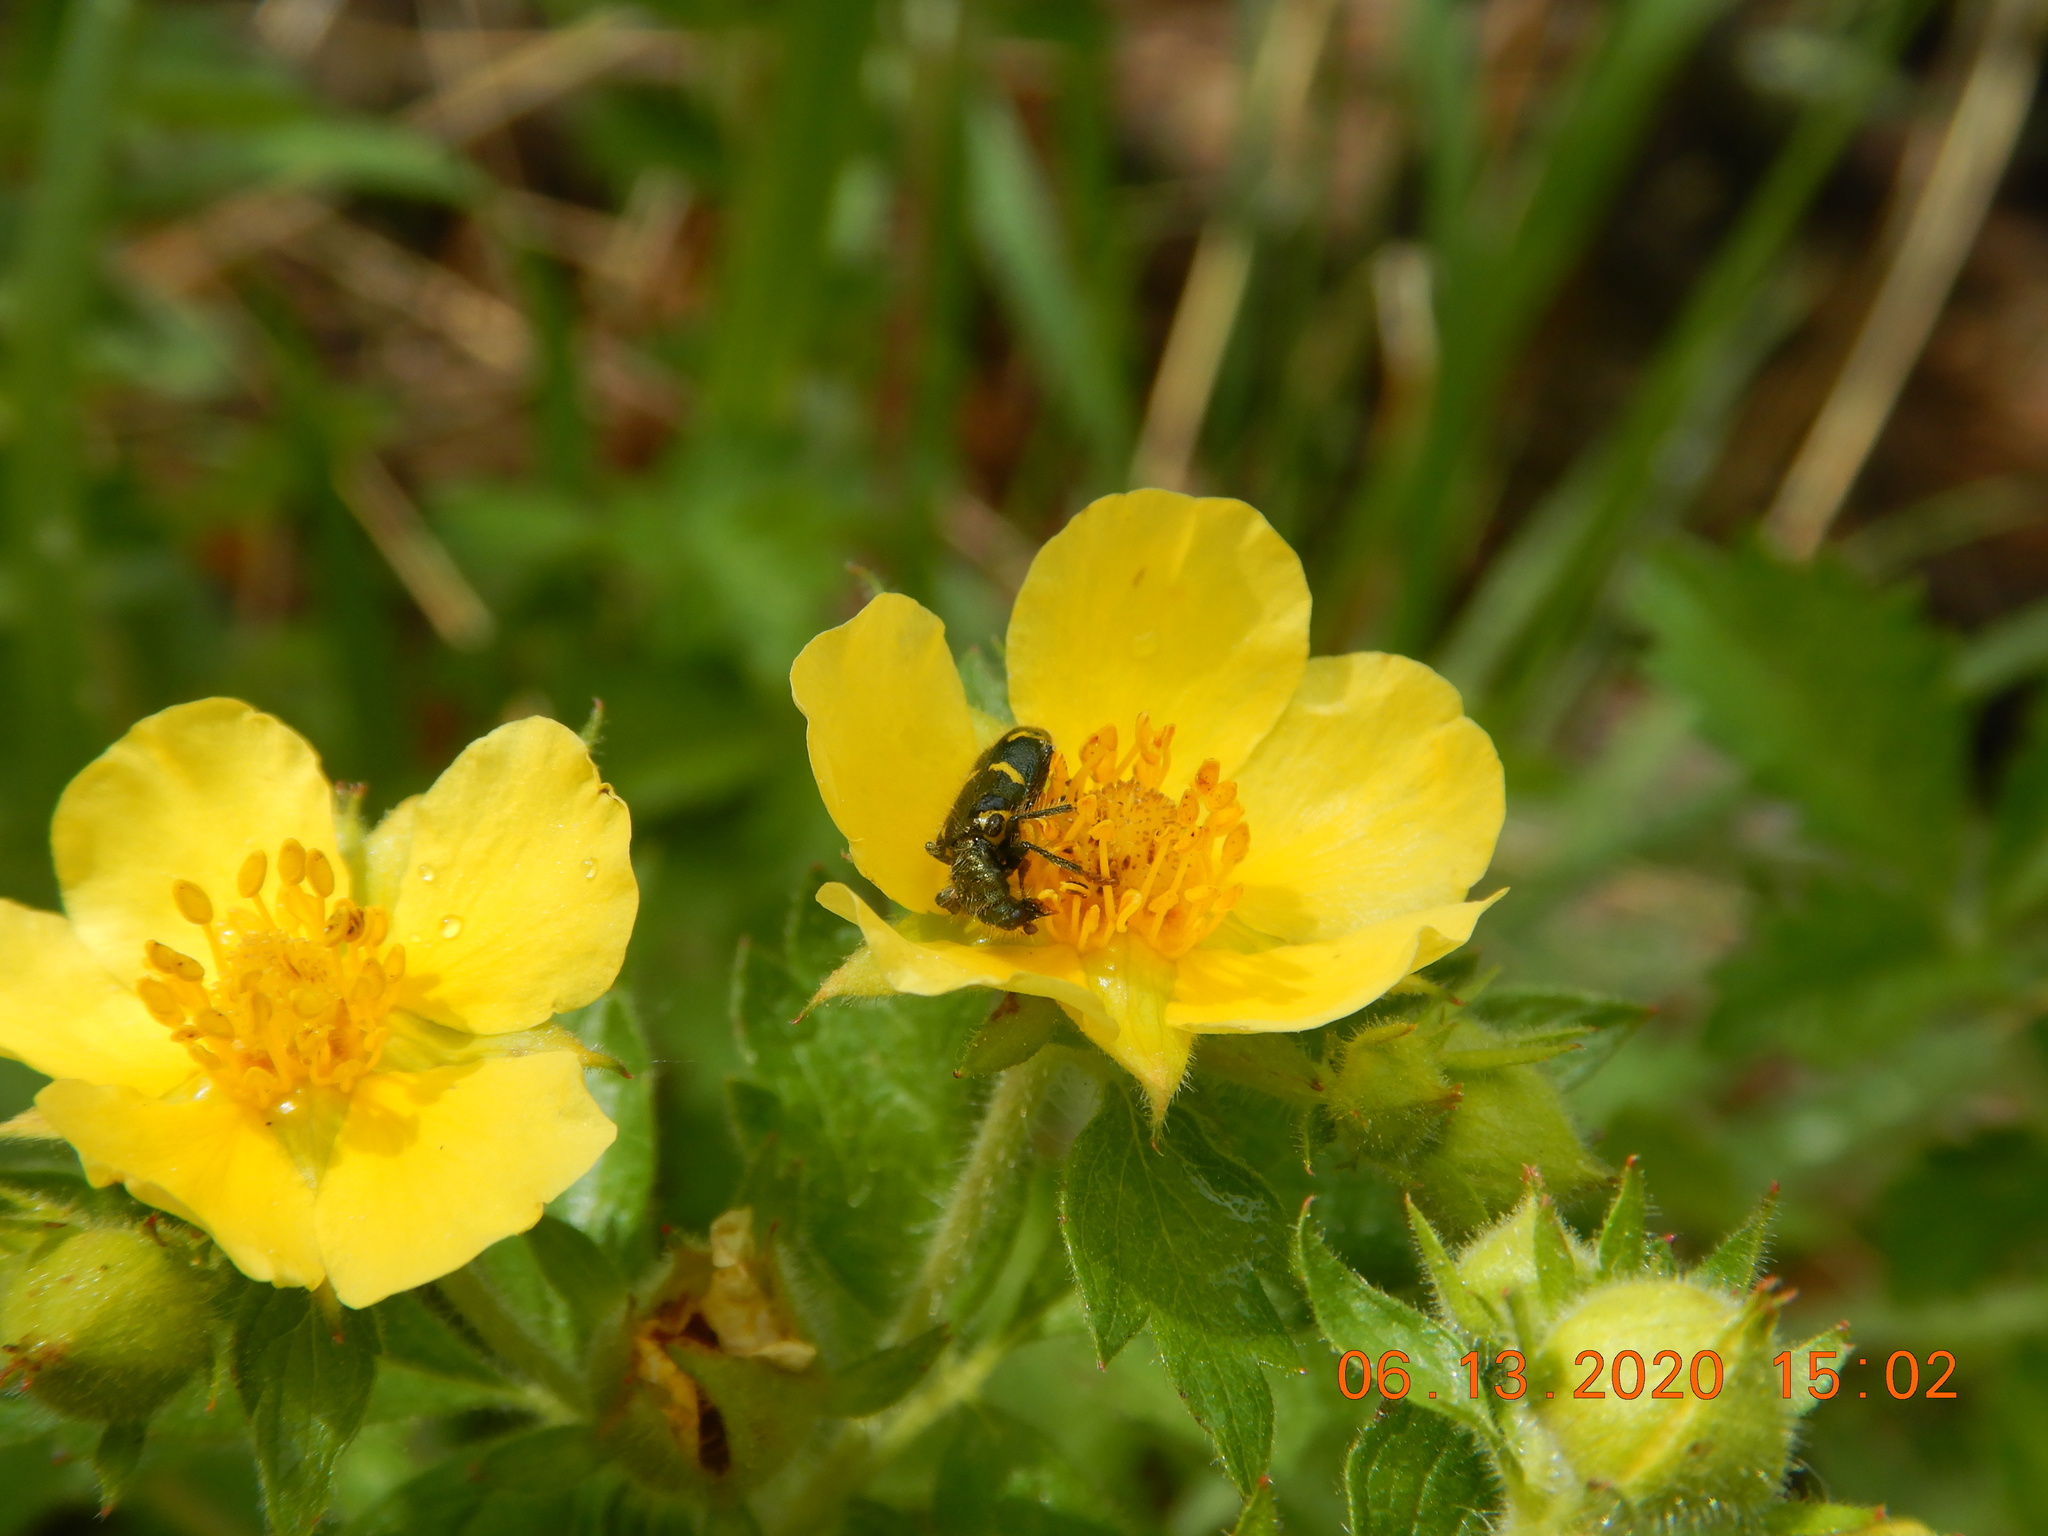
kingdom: Animalia
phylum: Arthropoda
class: Insecta
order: Coleoptera
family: Cleridae
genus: Trichodes
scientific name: Trichodes ornatus
